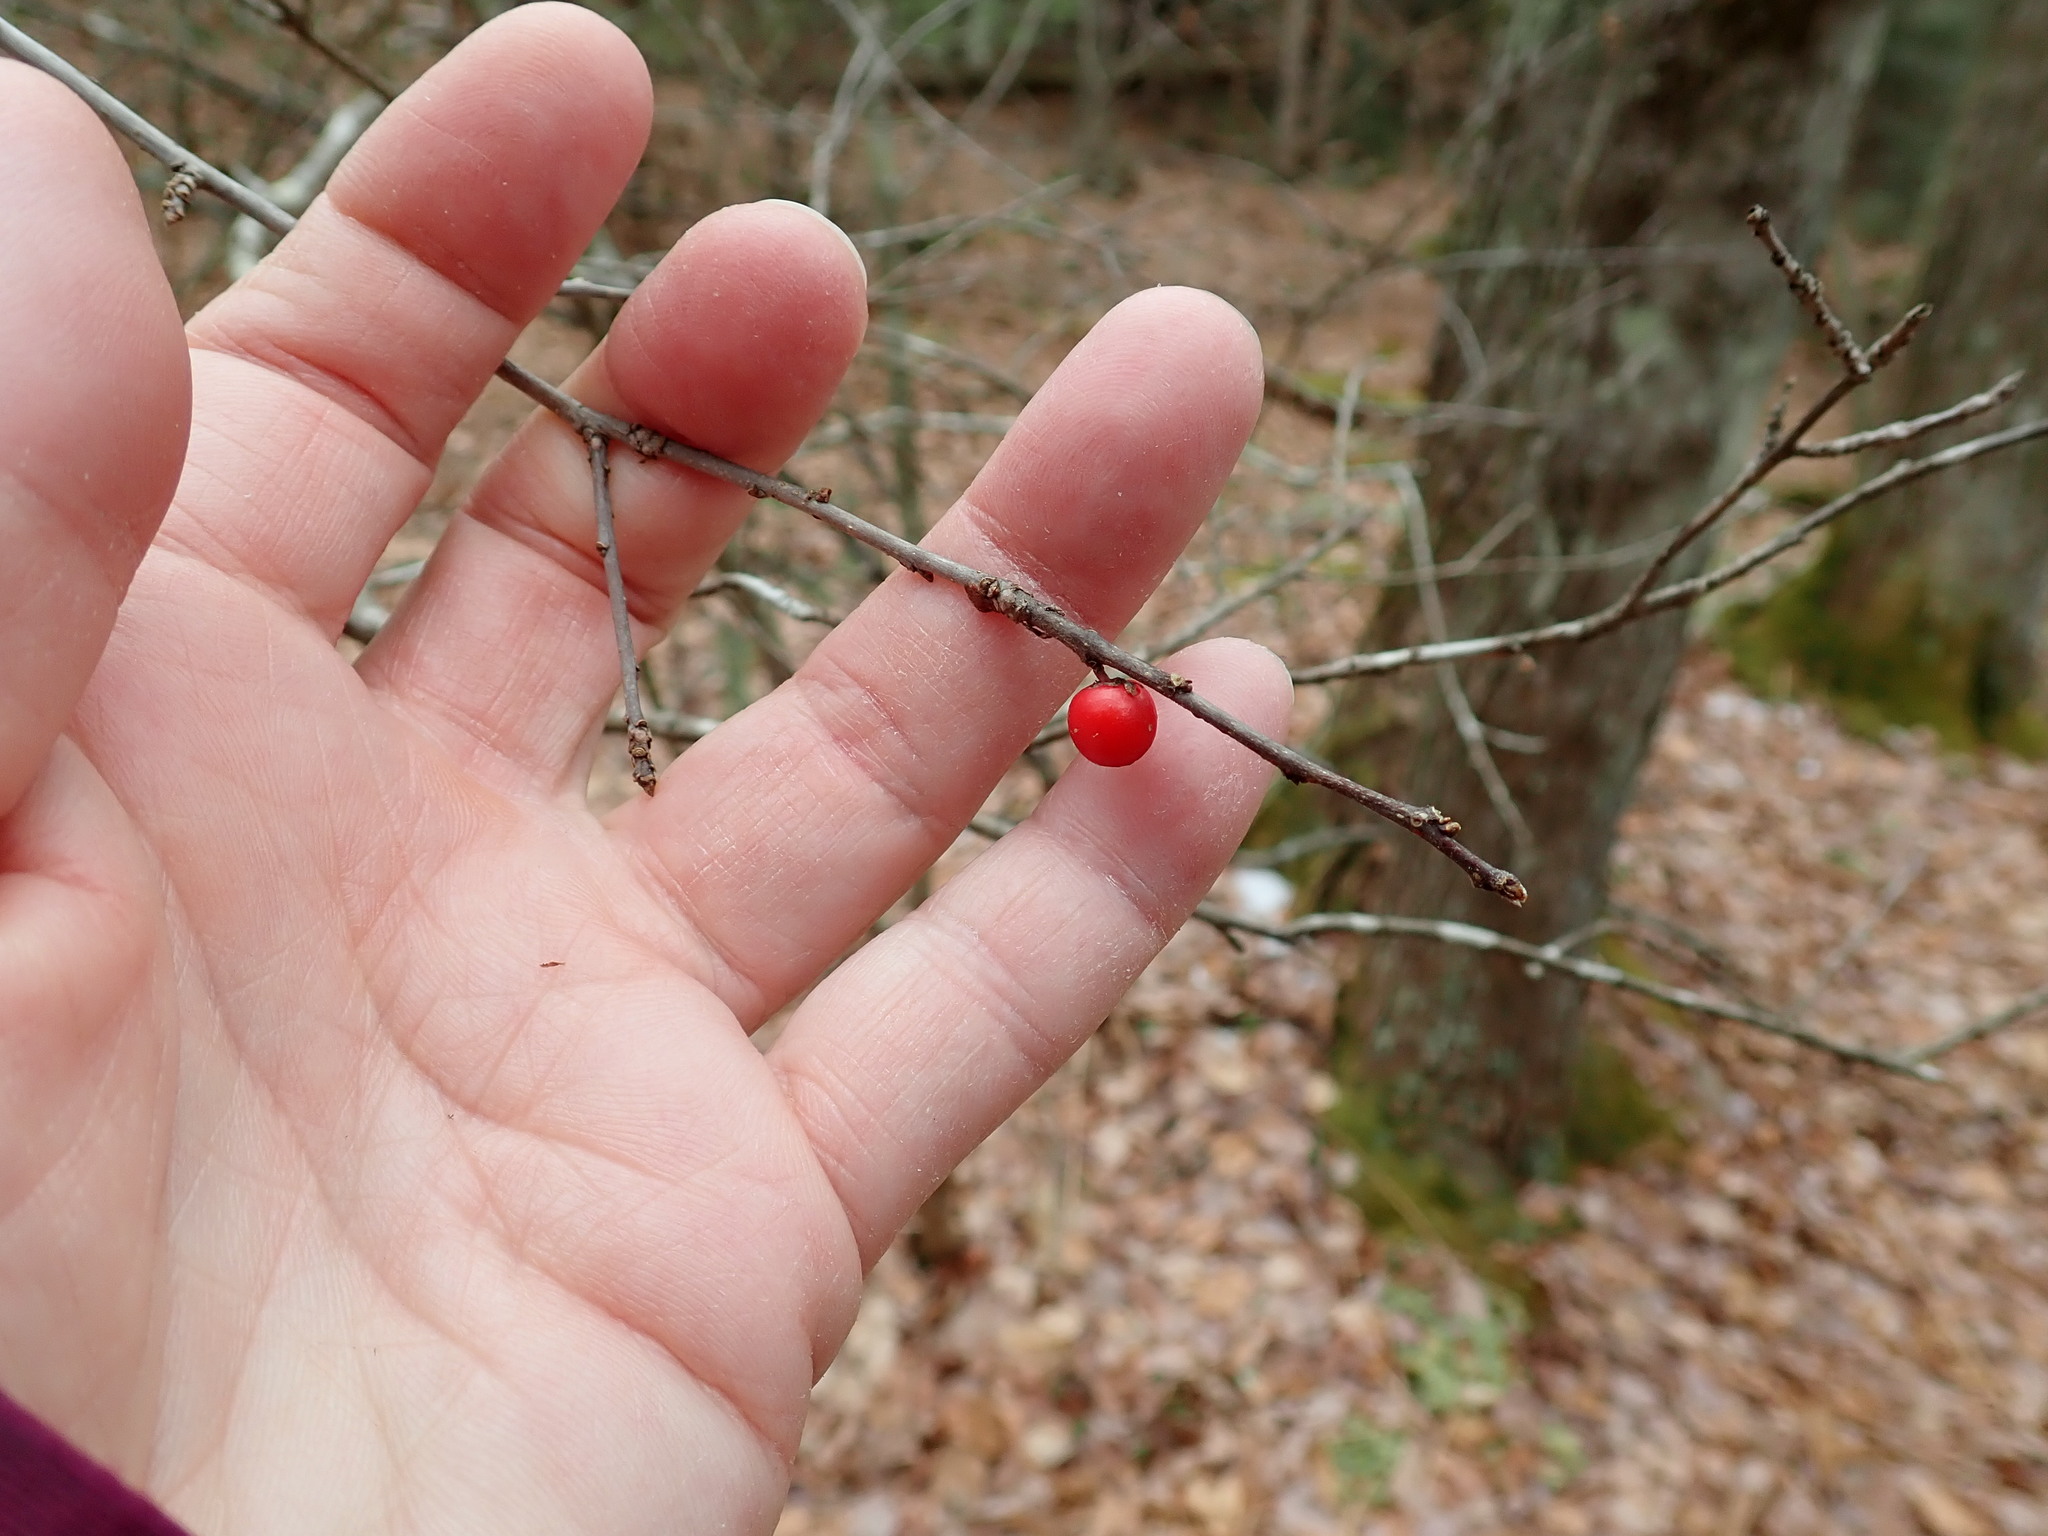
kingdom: Plantae
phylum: Tracheophyta
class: Magnoliopsida
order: Aquifoliales
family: Aquifoliaceae
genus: Ilex
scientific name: Ilex verticillata
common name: Virginia winterberry
